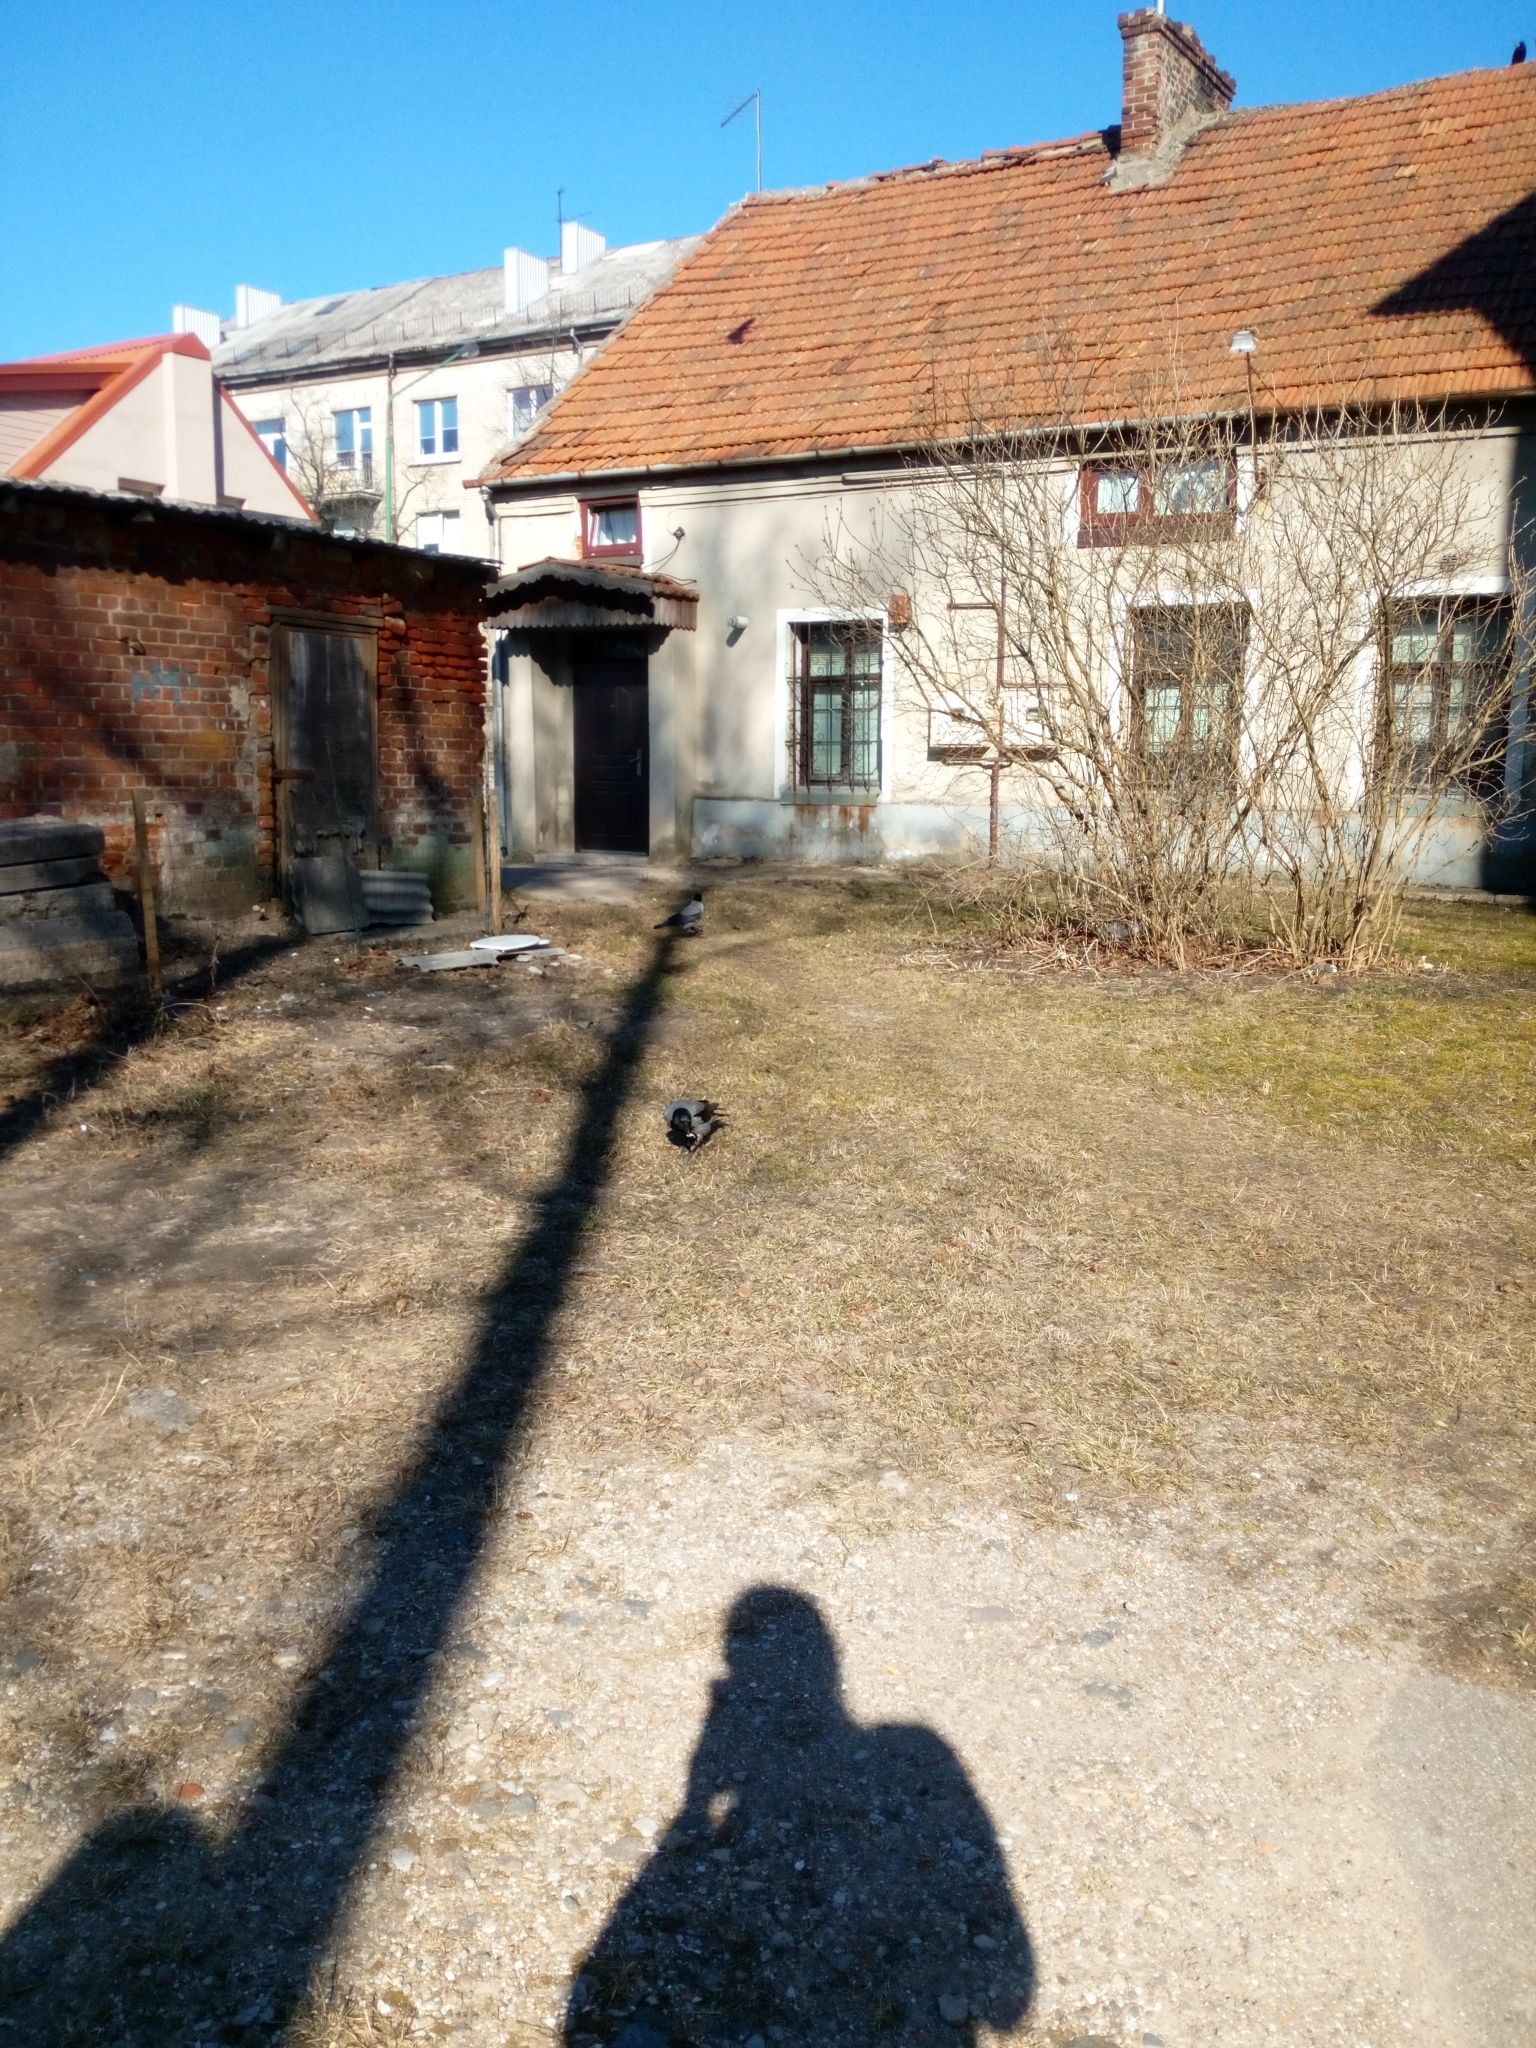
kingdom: Animalia
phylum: Chordata
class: Aves
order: Passeriformes
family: Corvidae
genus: Corvus
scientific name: Corvus cornix
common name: Hooded crow
